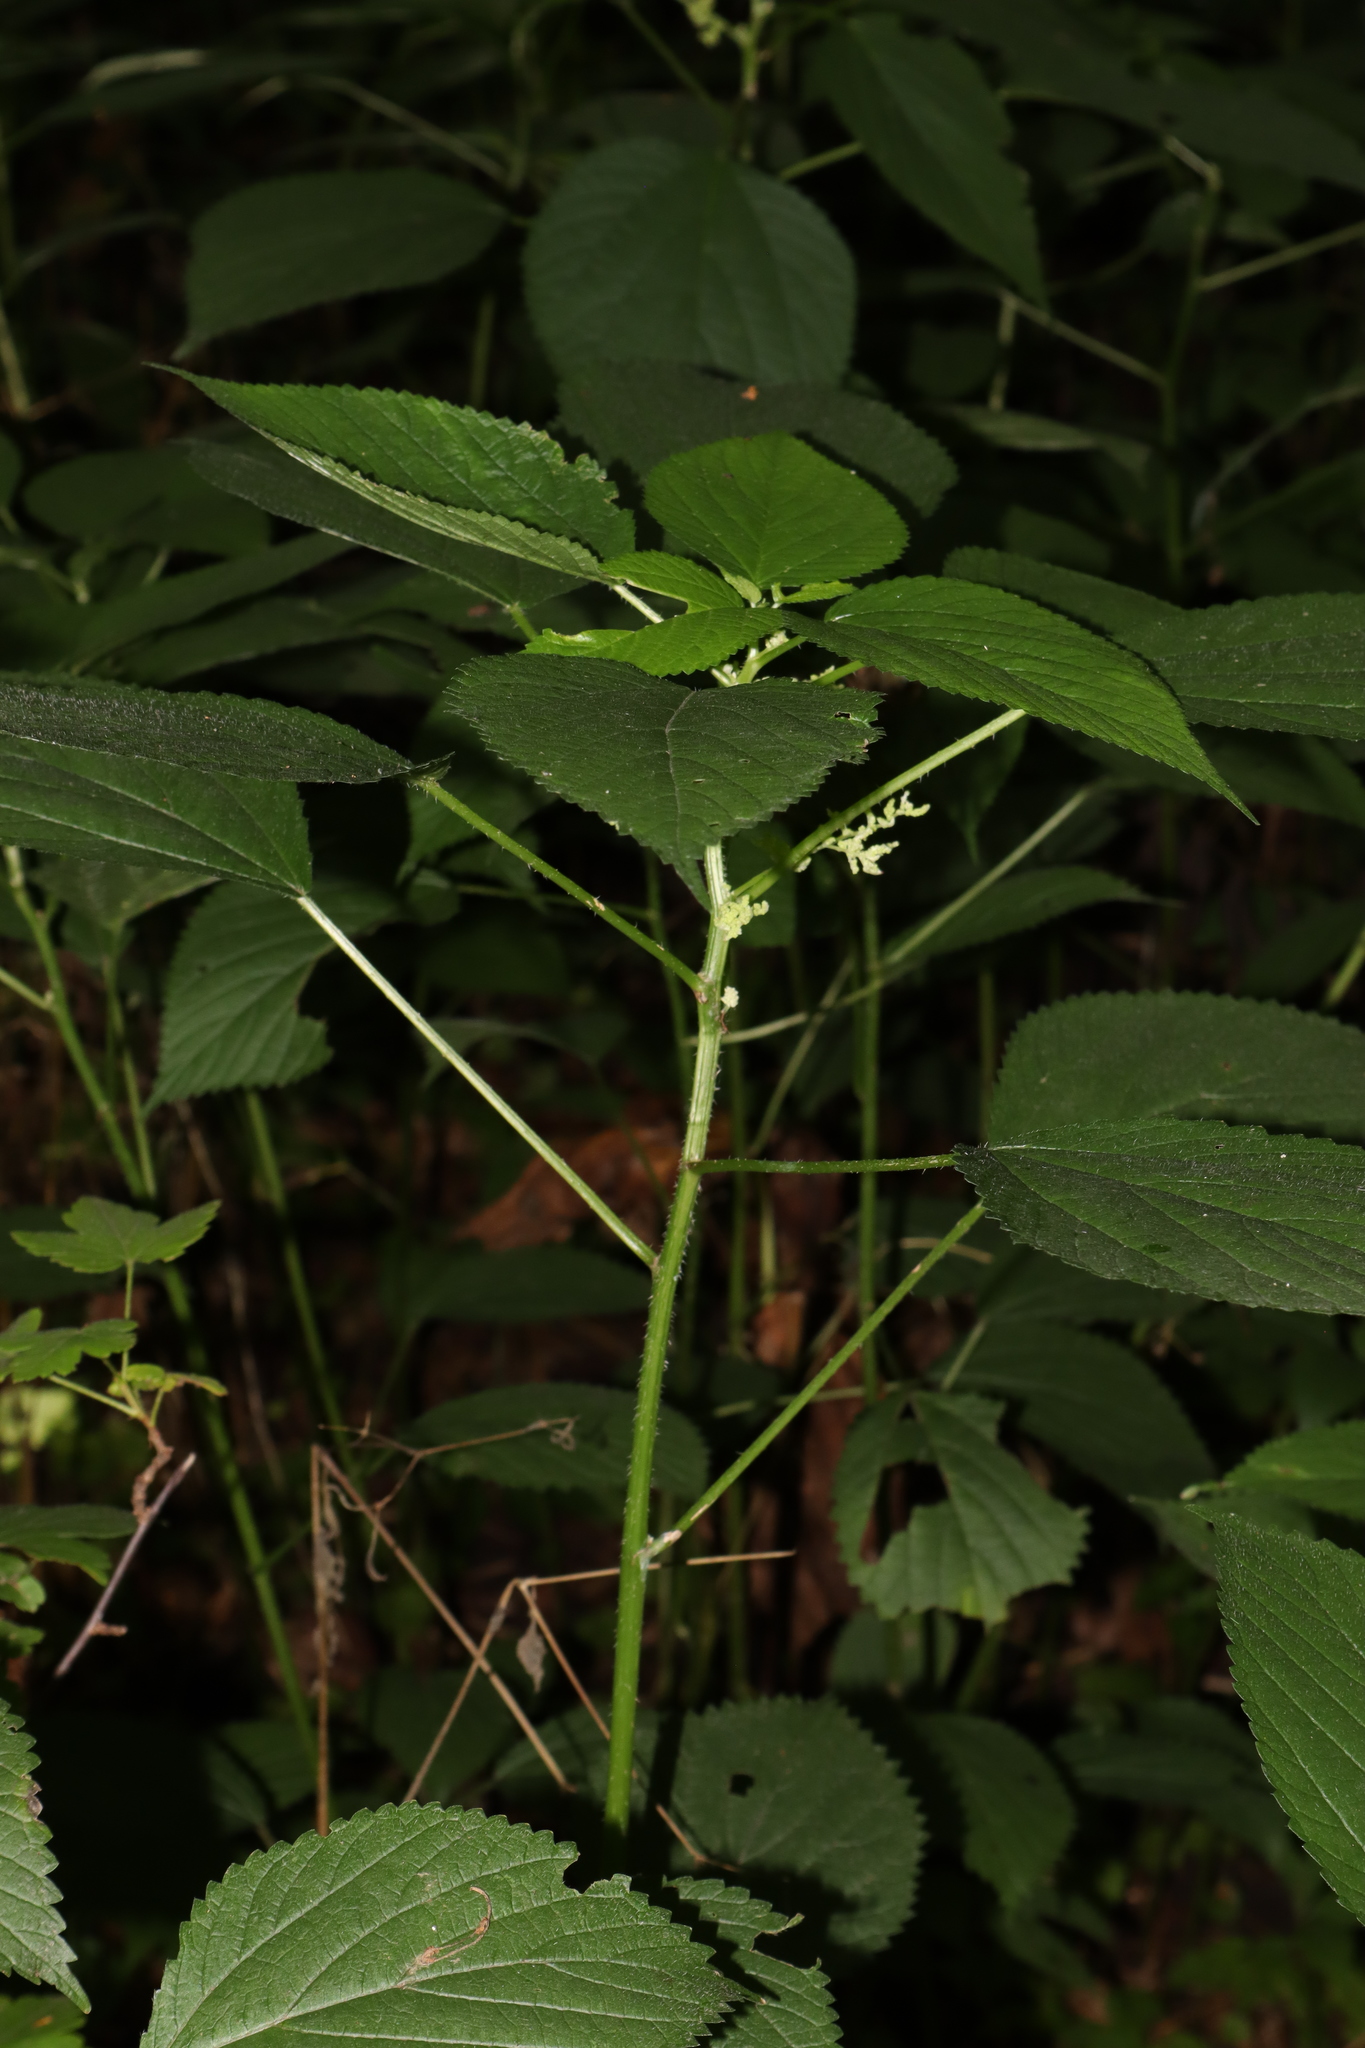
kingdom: Plantae
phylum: Tracheophyta
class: Magnoliopsida
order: Rosales
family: Urticaceae
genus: Laportea
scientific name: Laportea canadensis
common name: Canada nettle
